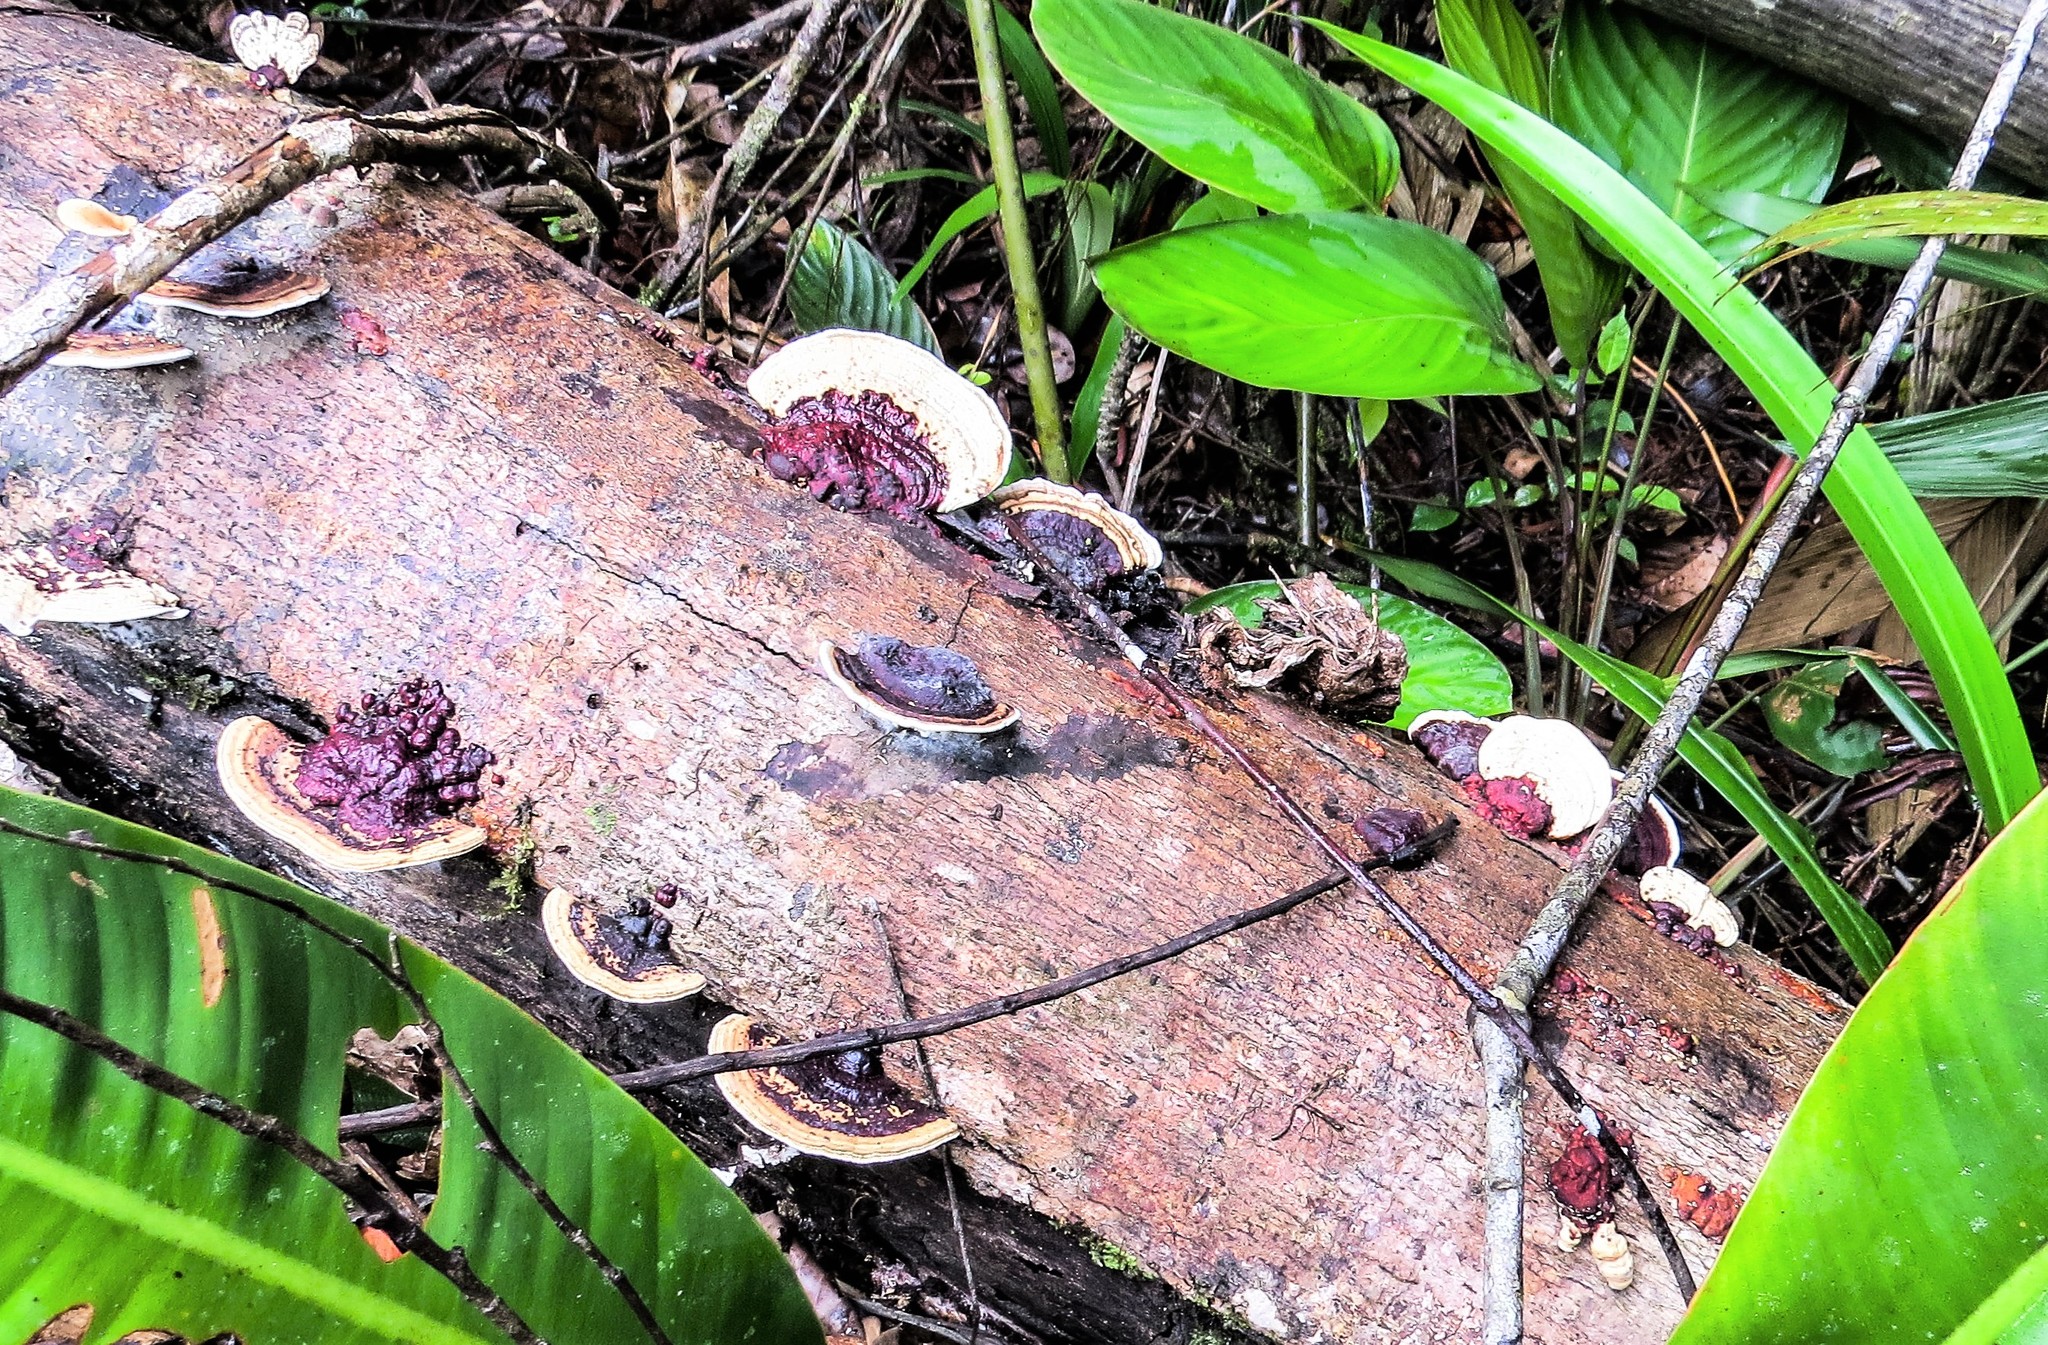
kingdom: Fungi
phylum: Basidiomycota
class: Agaricomycetes
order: Polyporales
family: Polyporaceae
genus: Earliella
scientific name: Earliella scabrosa
